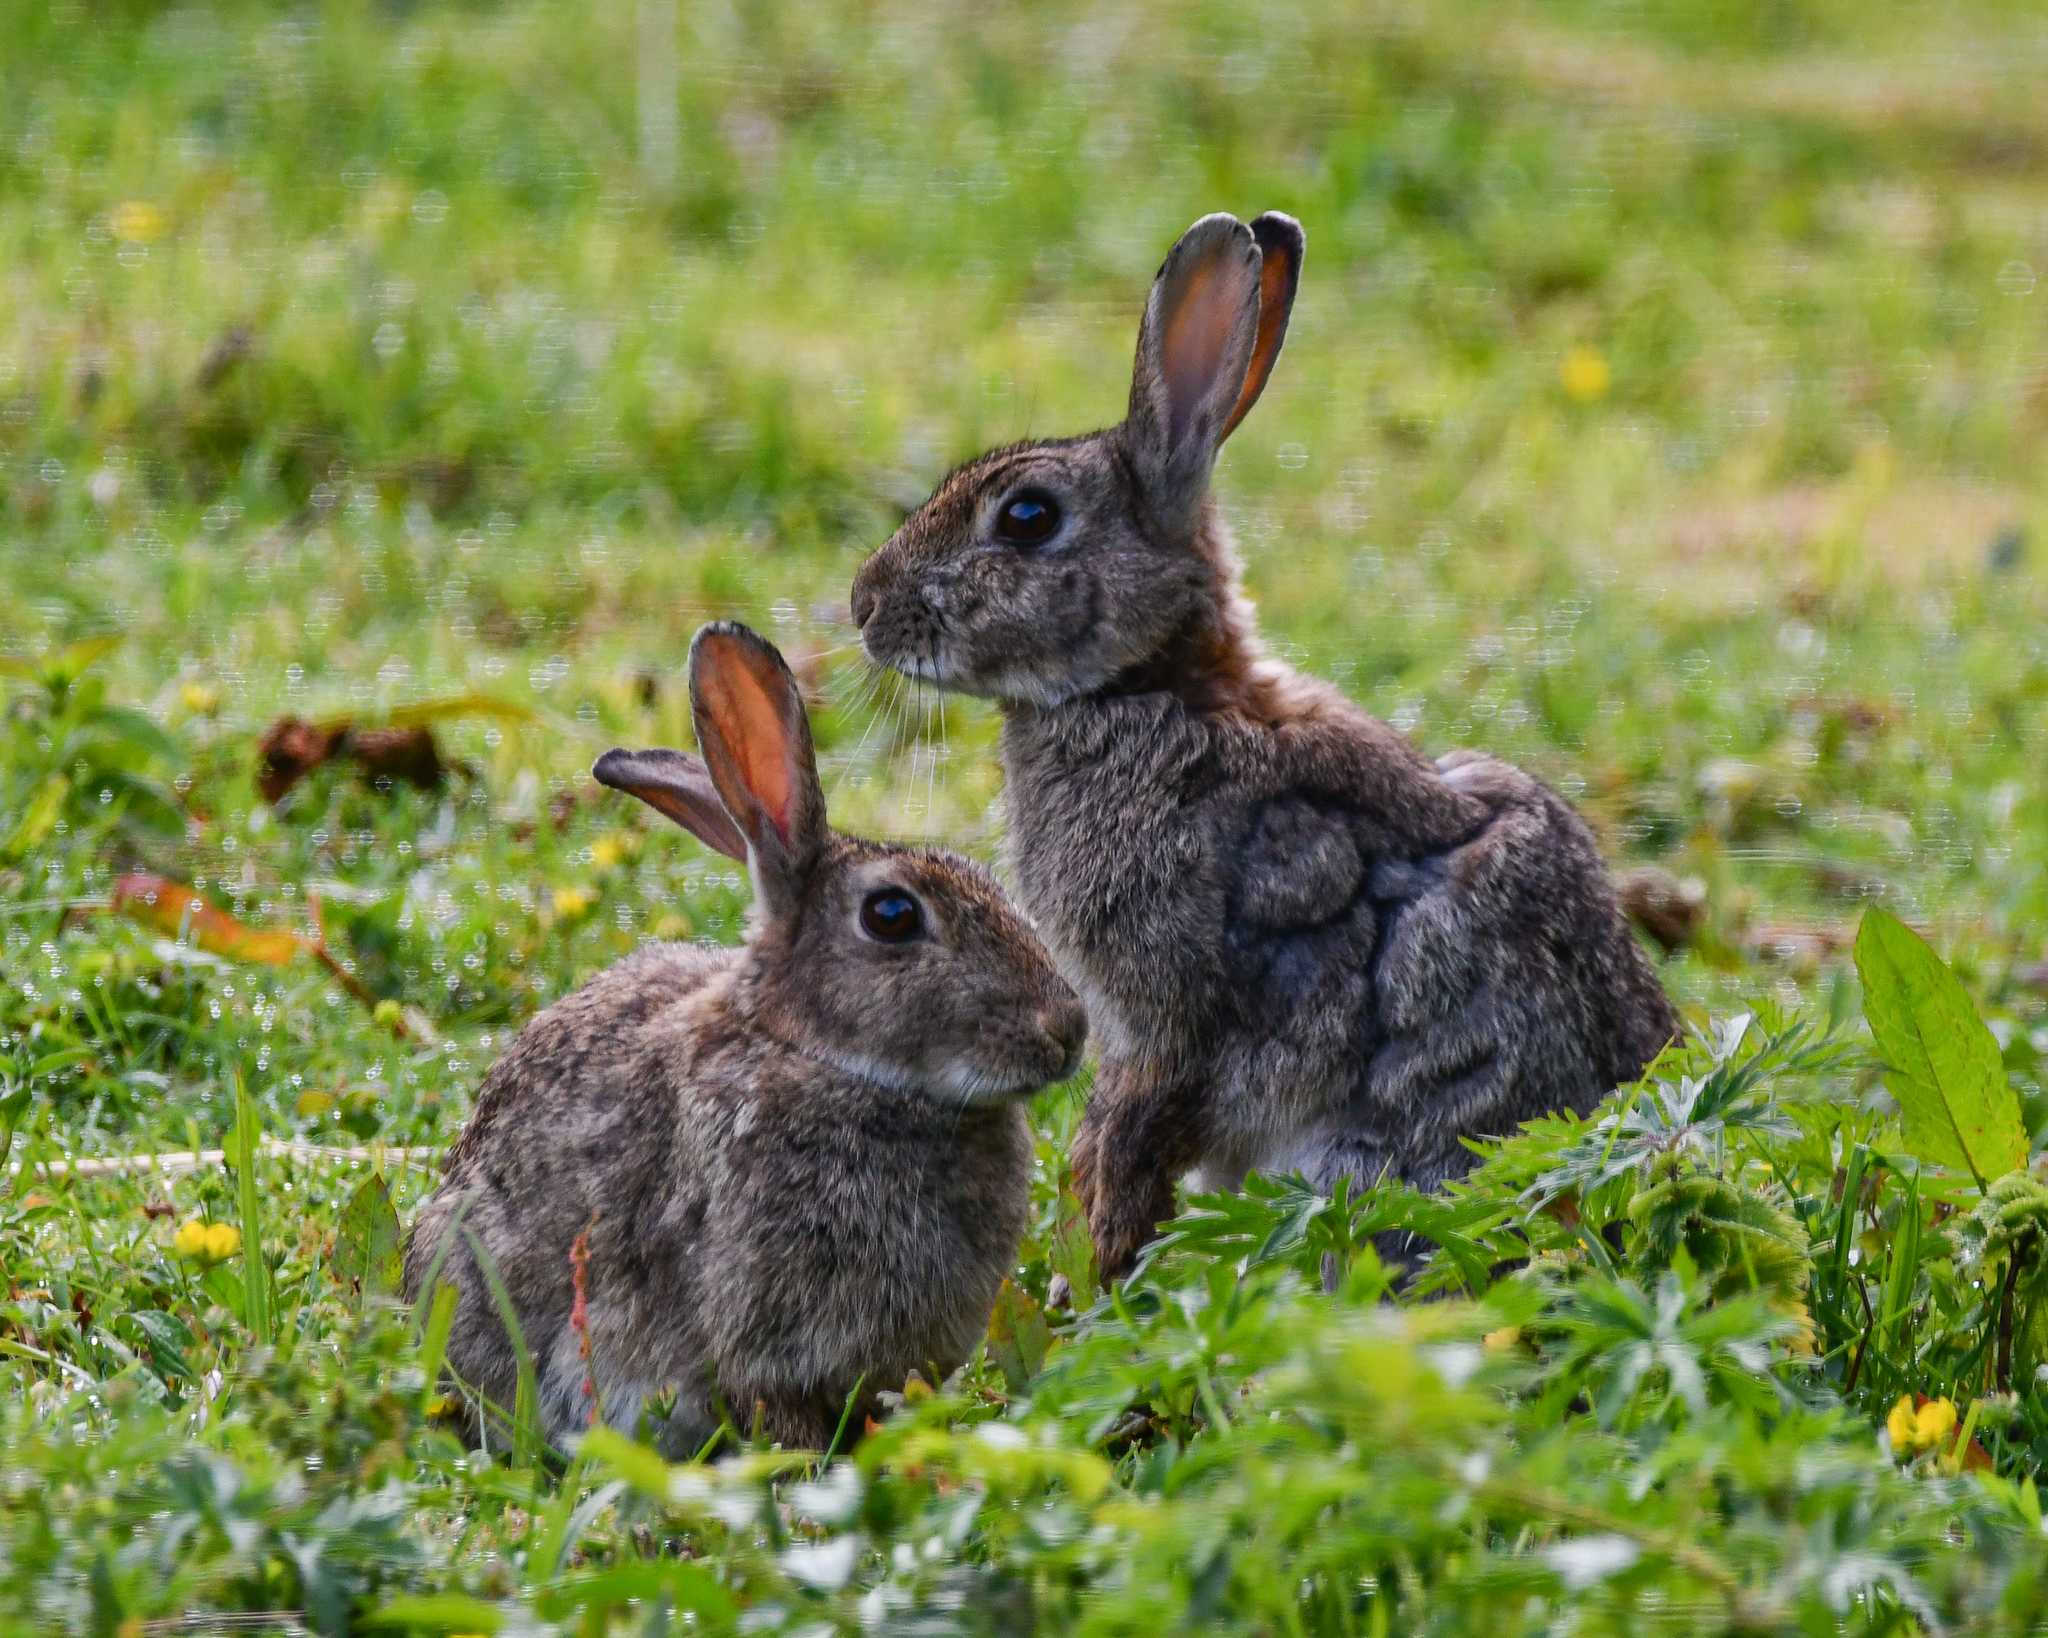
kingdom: Animalia
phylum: Chordata
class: Mammalia
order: Lagomorpha
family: Leporidae
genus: Oryctolagus
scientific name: Oryctolagus cuniculus
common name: European rabbit
